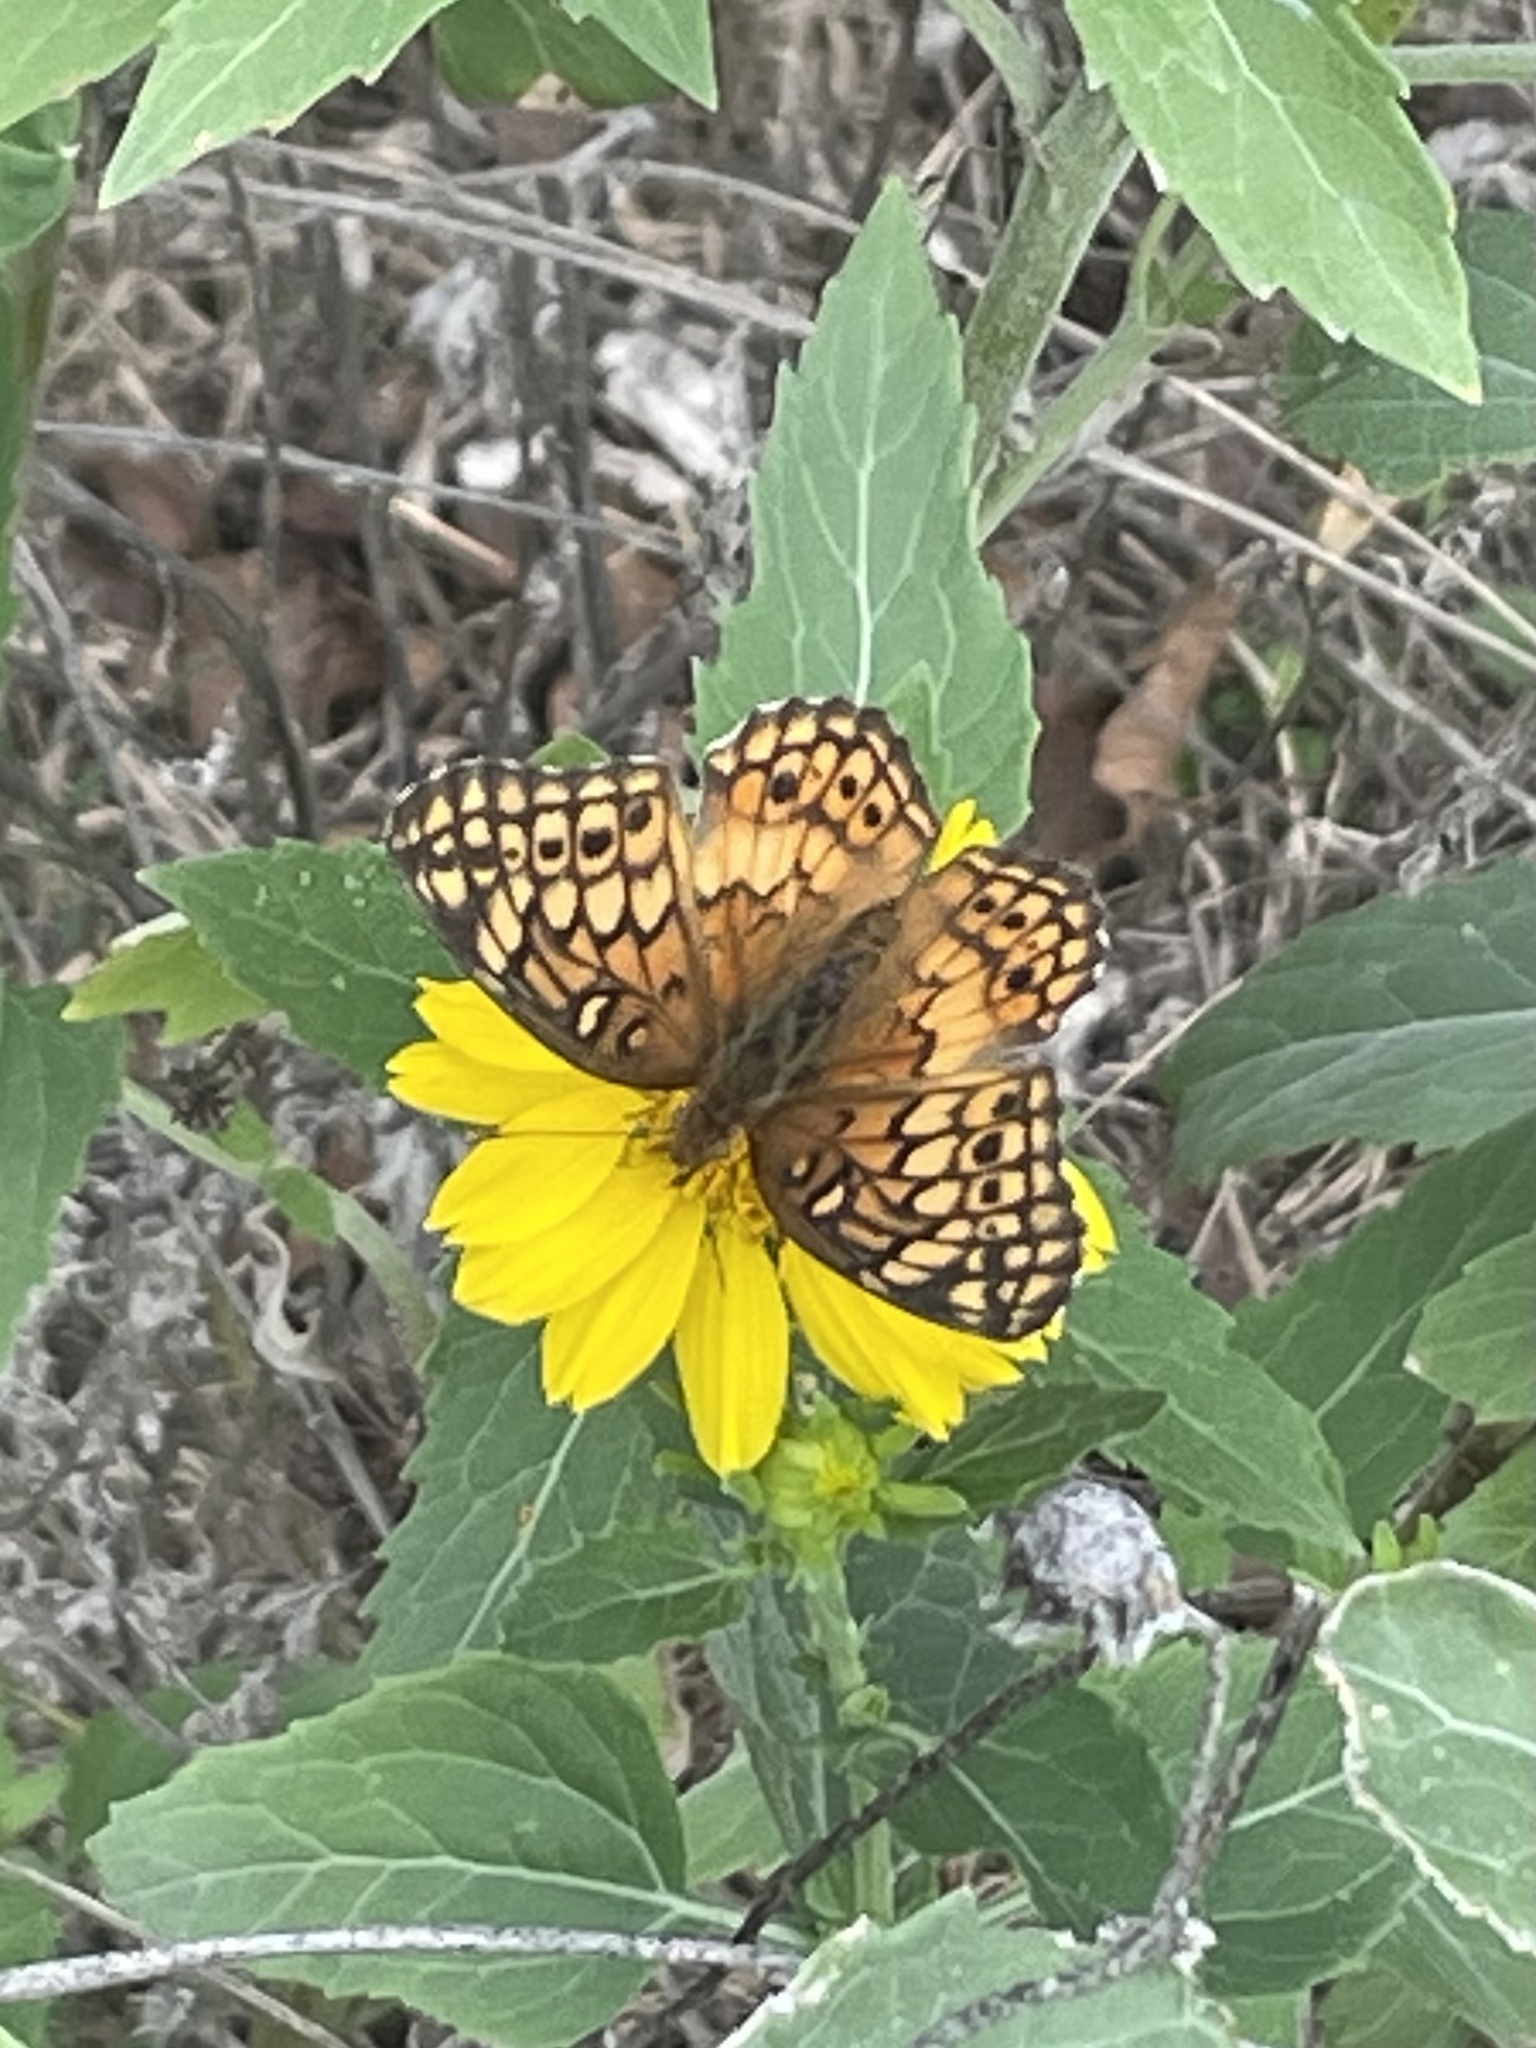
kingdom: Animalia
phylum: Arthropoda
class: Insecta
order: Lepidoptera
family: Nymphalidae
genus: Euptoieta
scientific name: Euptoieta claudia
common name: Variegated fritillary
